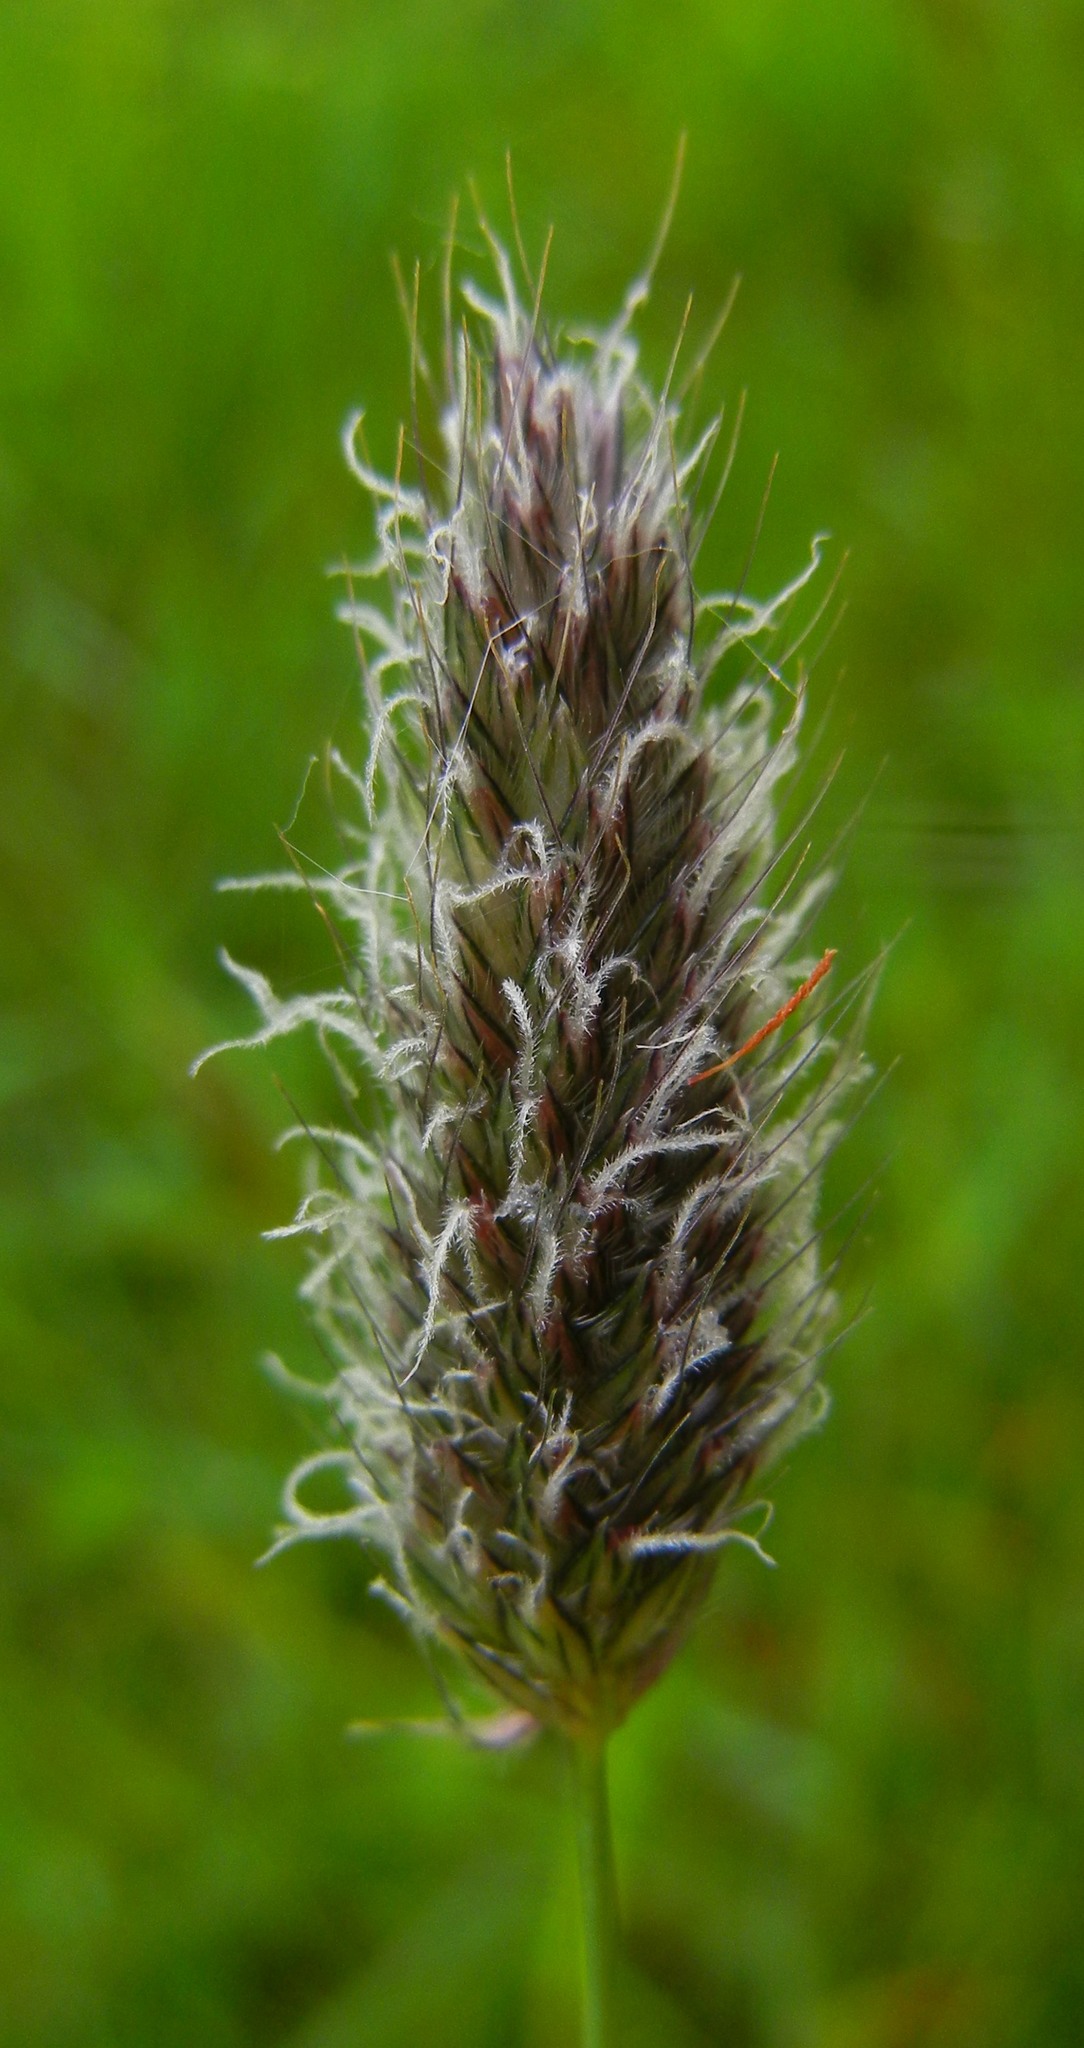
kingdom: Plantae
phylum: Tracheophyta
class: Liliopsida
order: Poales
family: Poaceae
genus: Alopecurus
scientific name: Alopecurus pratensis
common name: Meadow foxtail
